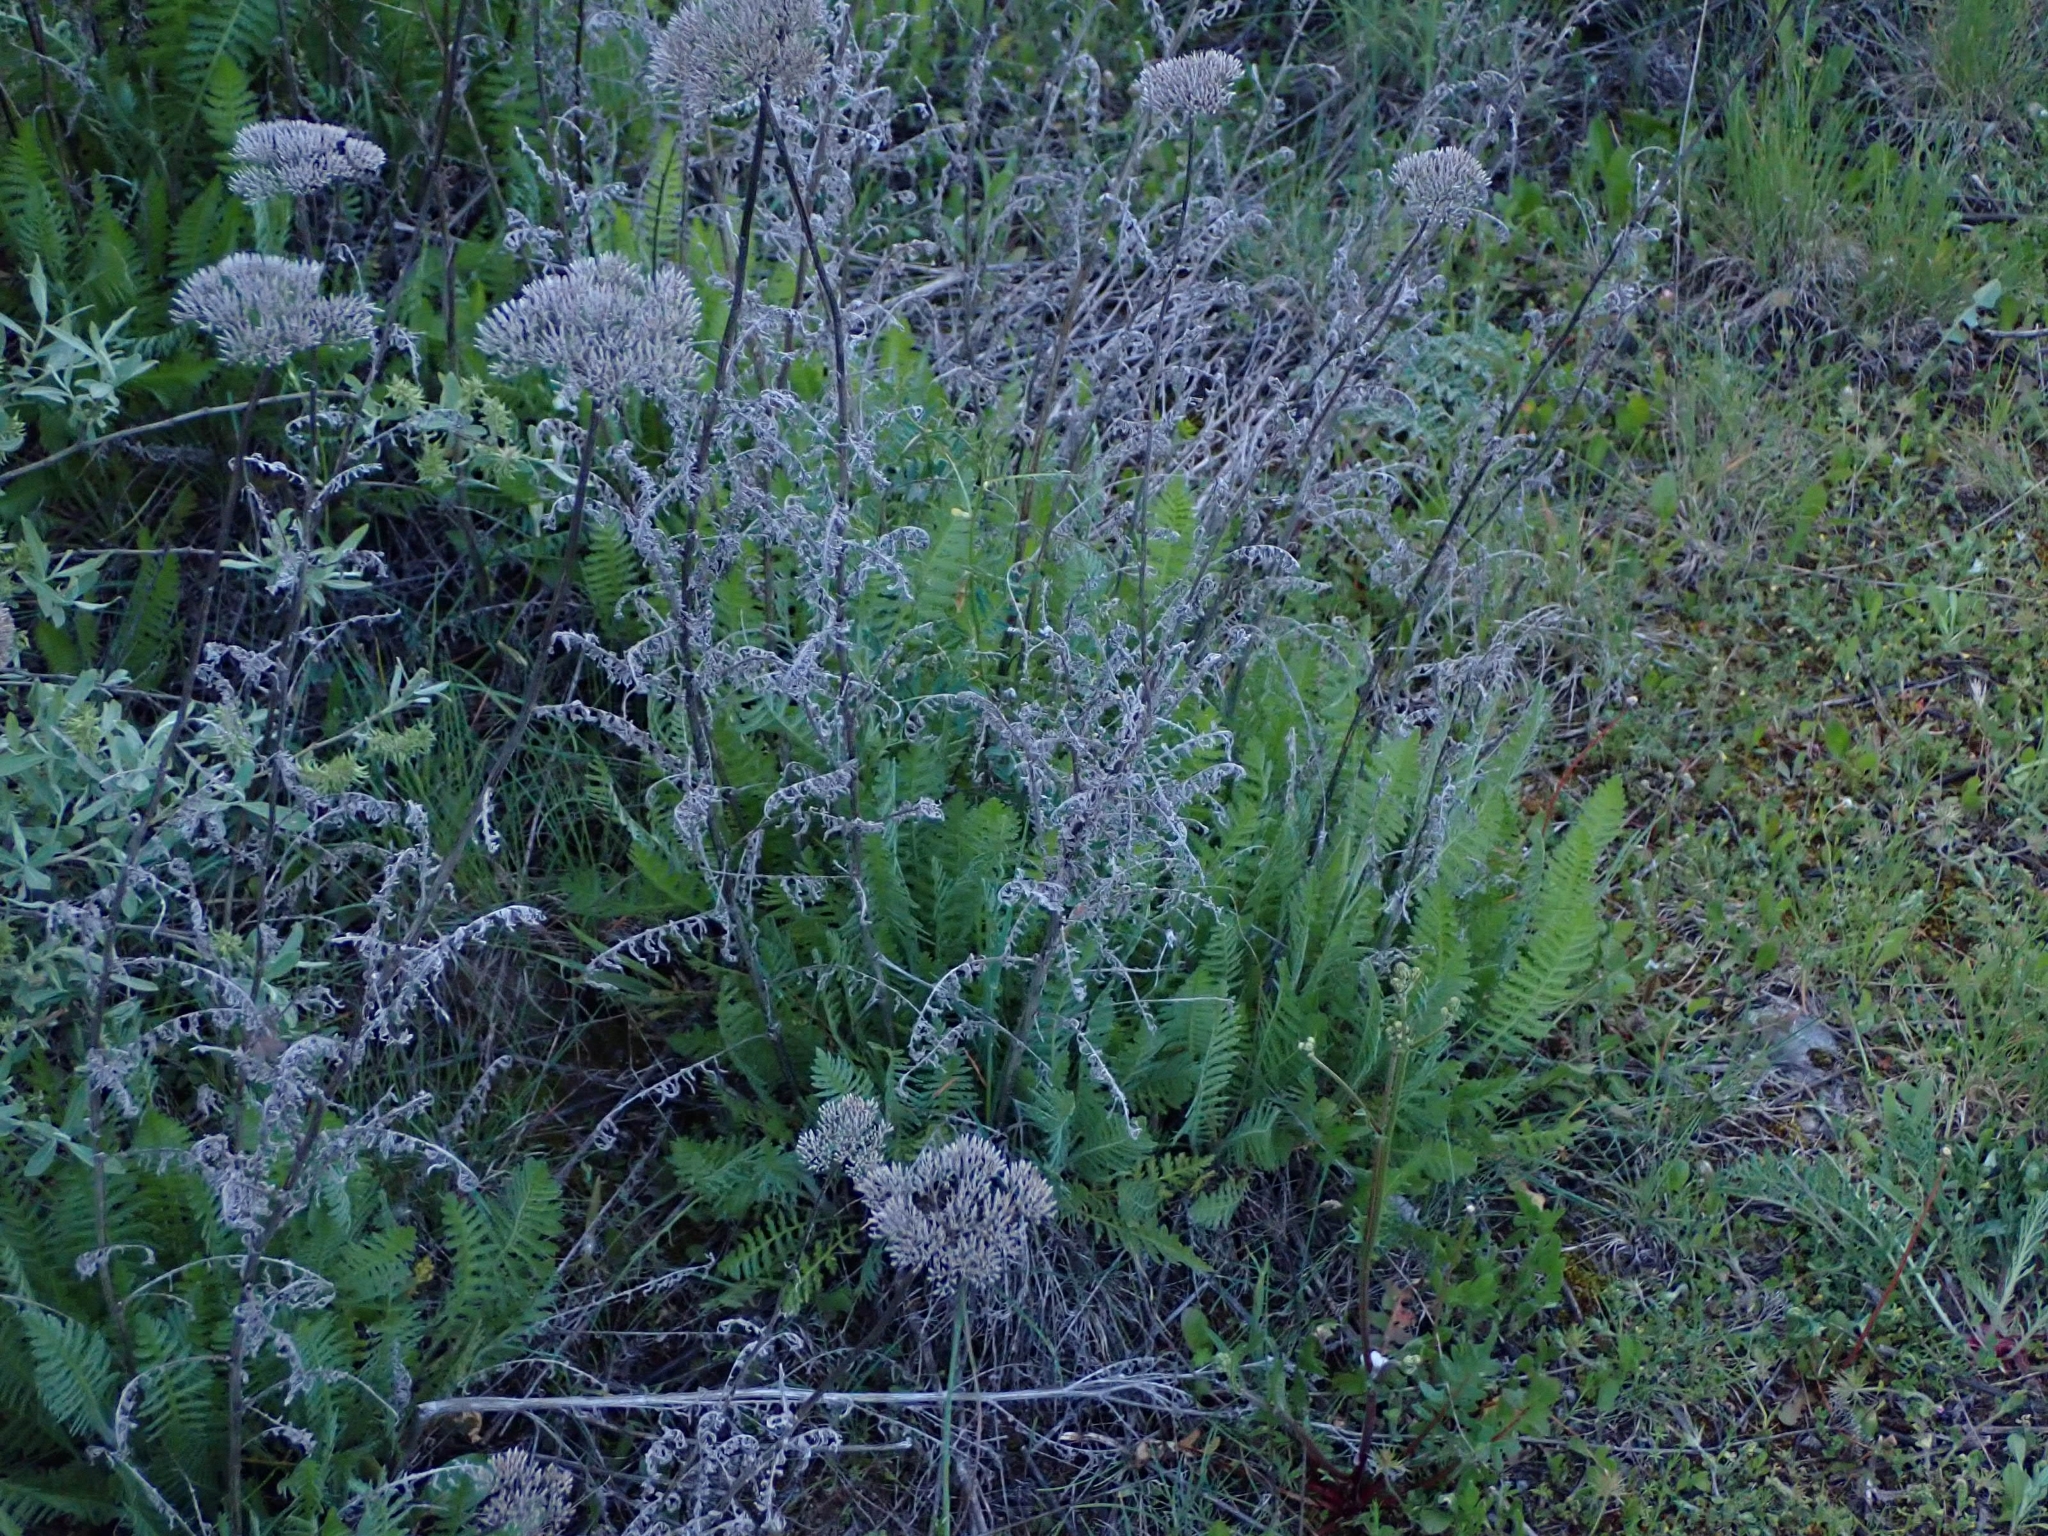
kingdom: Plantae
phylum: Tracheophyta
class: Magnoliopsida
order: Asterales
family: Asteraceae
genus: Achillea
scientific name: Achillea filipendulina
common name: Fernleaf yarrow
